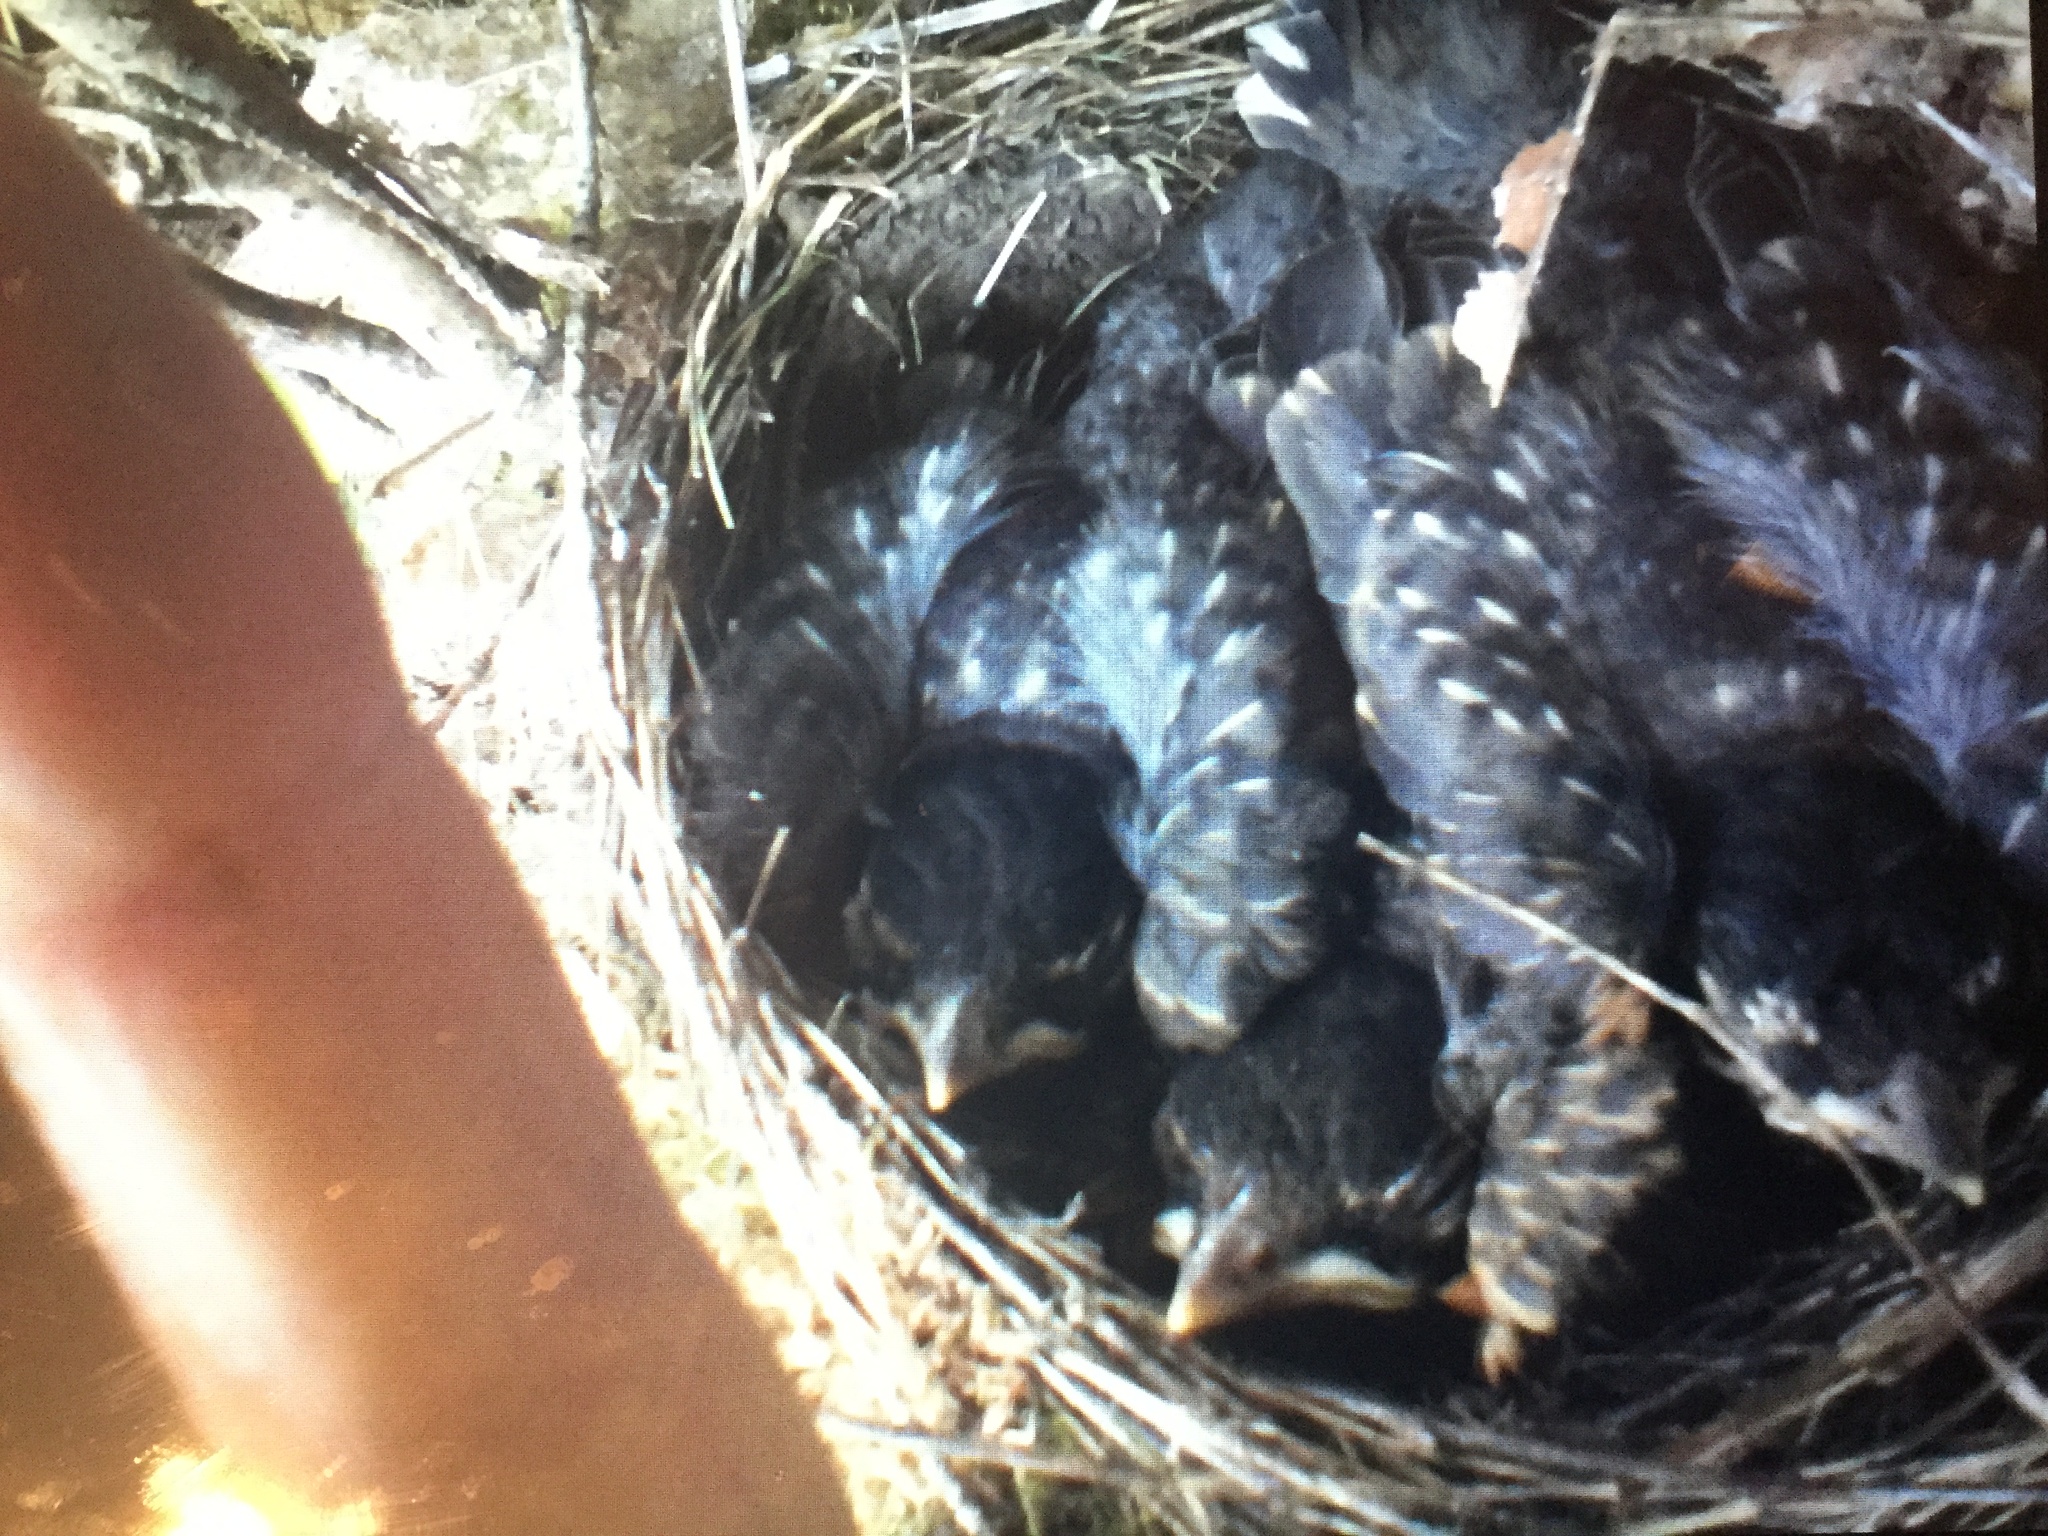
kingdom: Animalia
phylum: Chordata
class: Aves
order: Passeriformes
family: Turdidae
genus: Turdus
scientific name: Turdus migratorius
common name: American robin
